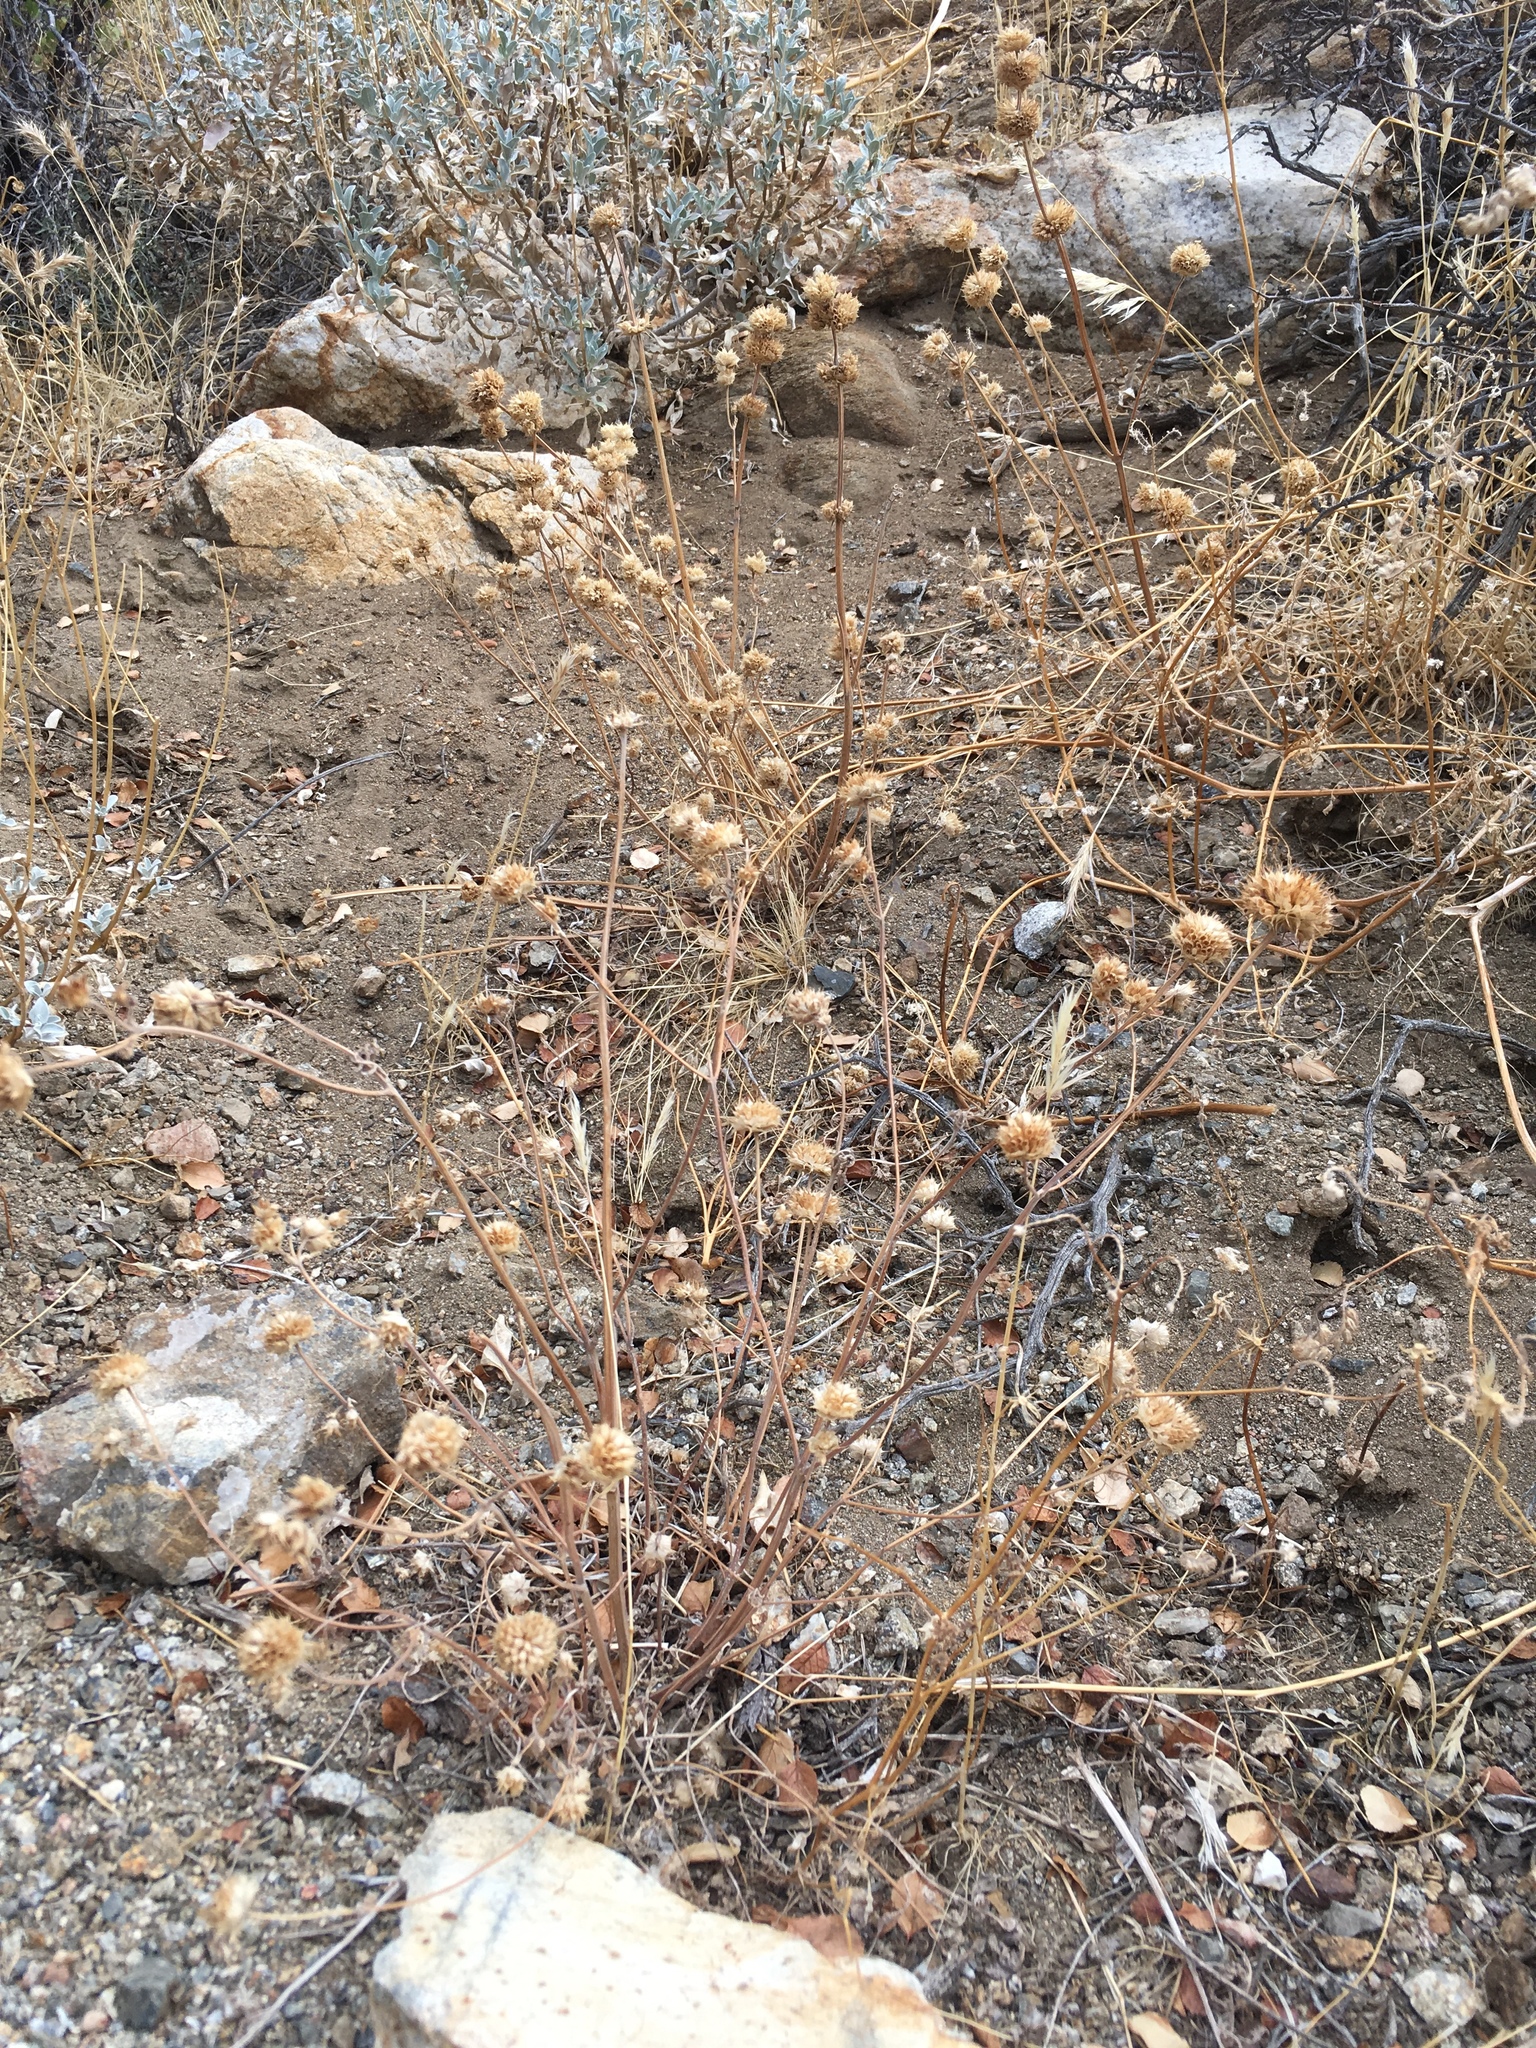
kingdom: Plantae
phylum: Tracheophyta
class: Magnoliopsida
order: Lamiales
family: Lamiaceae
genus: Salvia
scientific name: Salvia columbariae
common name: Chia
